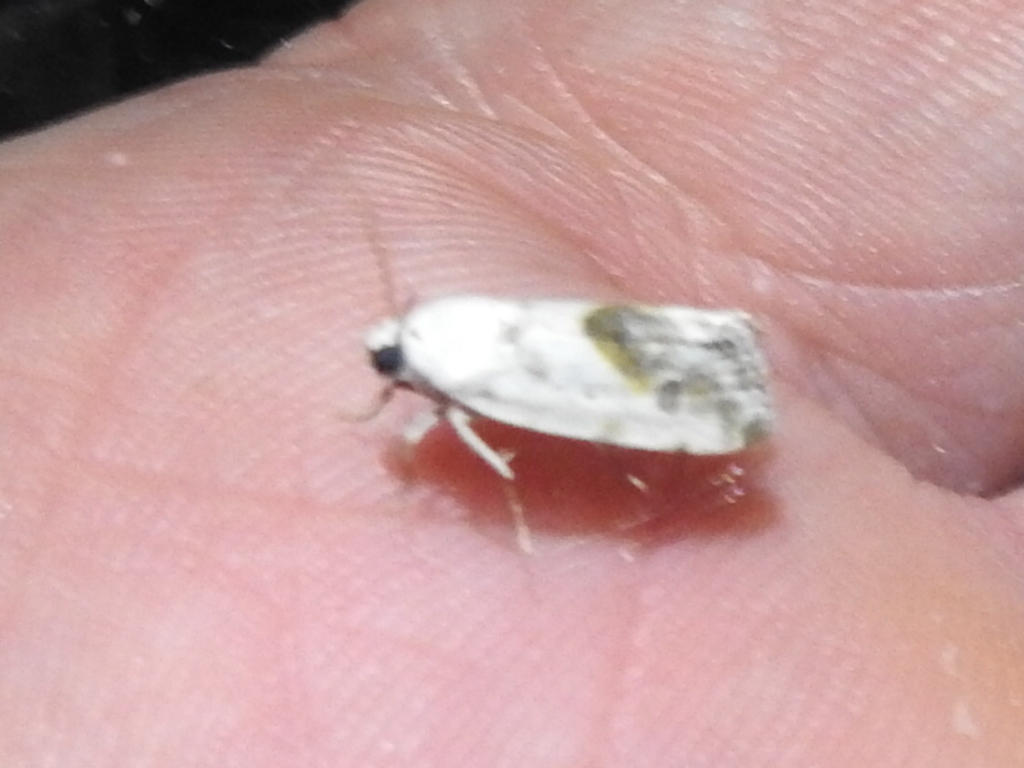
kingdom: Animalia
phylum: Arthropoda
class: Insecta
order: Lepidoptera
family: Noctuidae
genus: Acontia
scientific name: Acontia candefacta
